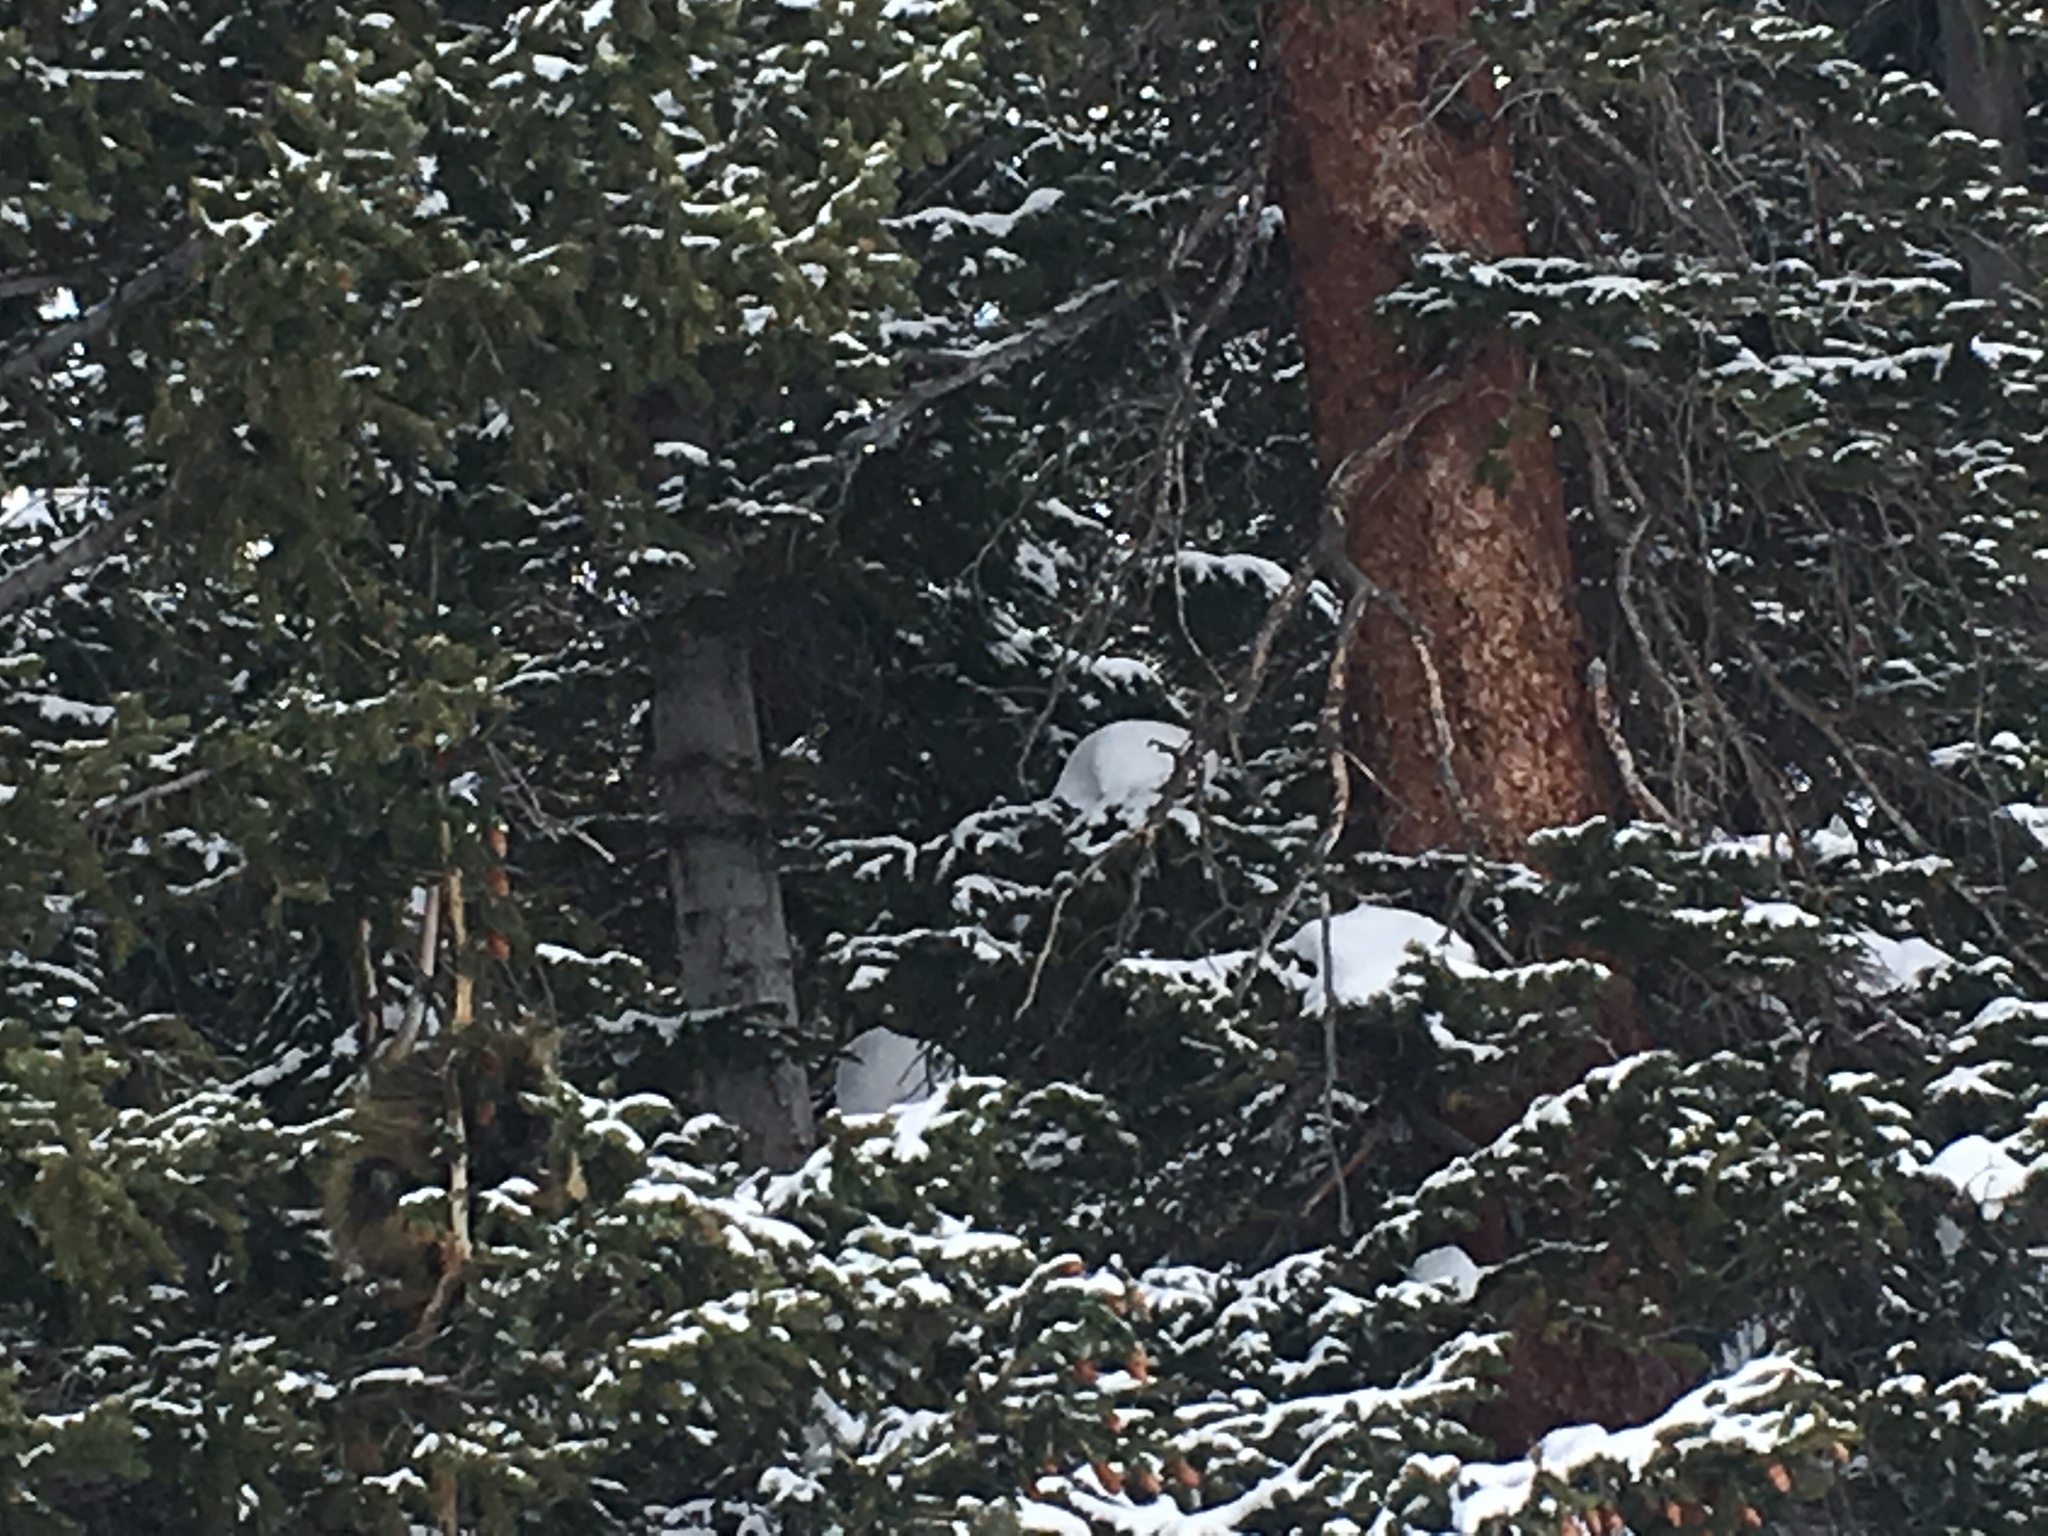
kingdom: Animalia
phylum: Chordata
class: Mammalia
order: Rodentia
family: Erethizontidae
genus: Erethizon
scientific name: Erethizon dorsatus
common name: North american porcupine
